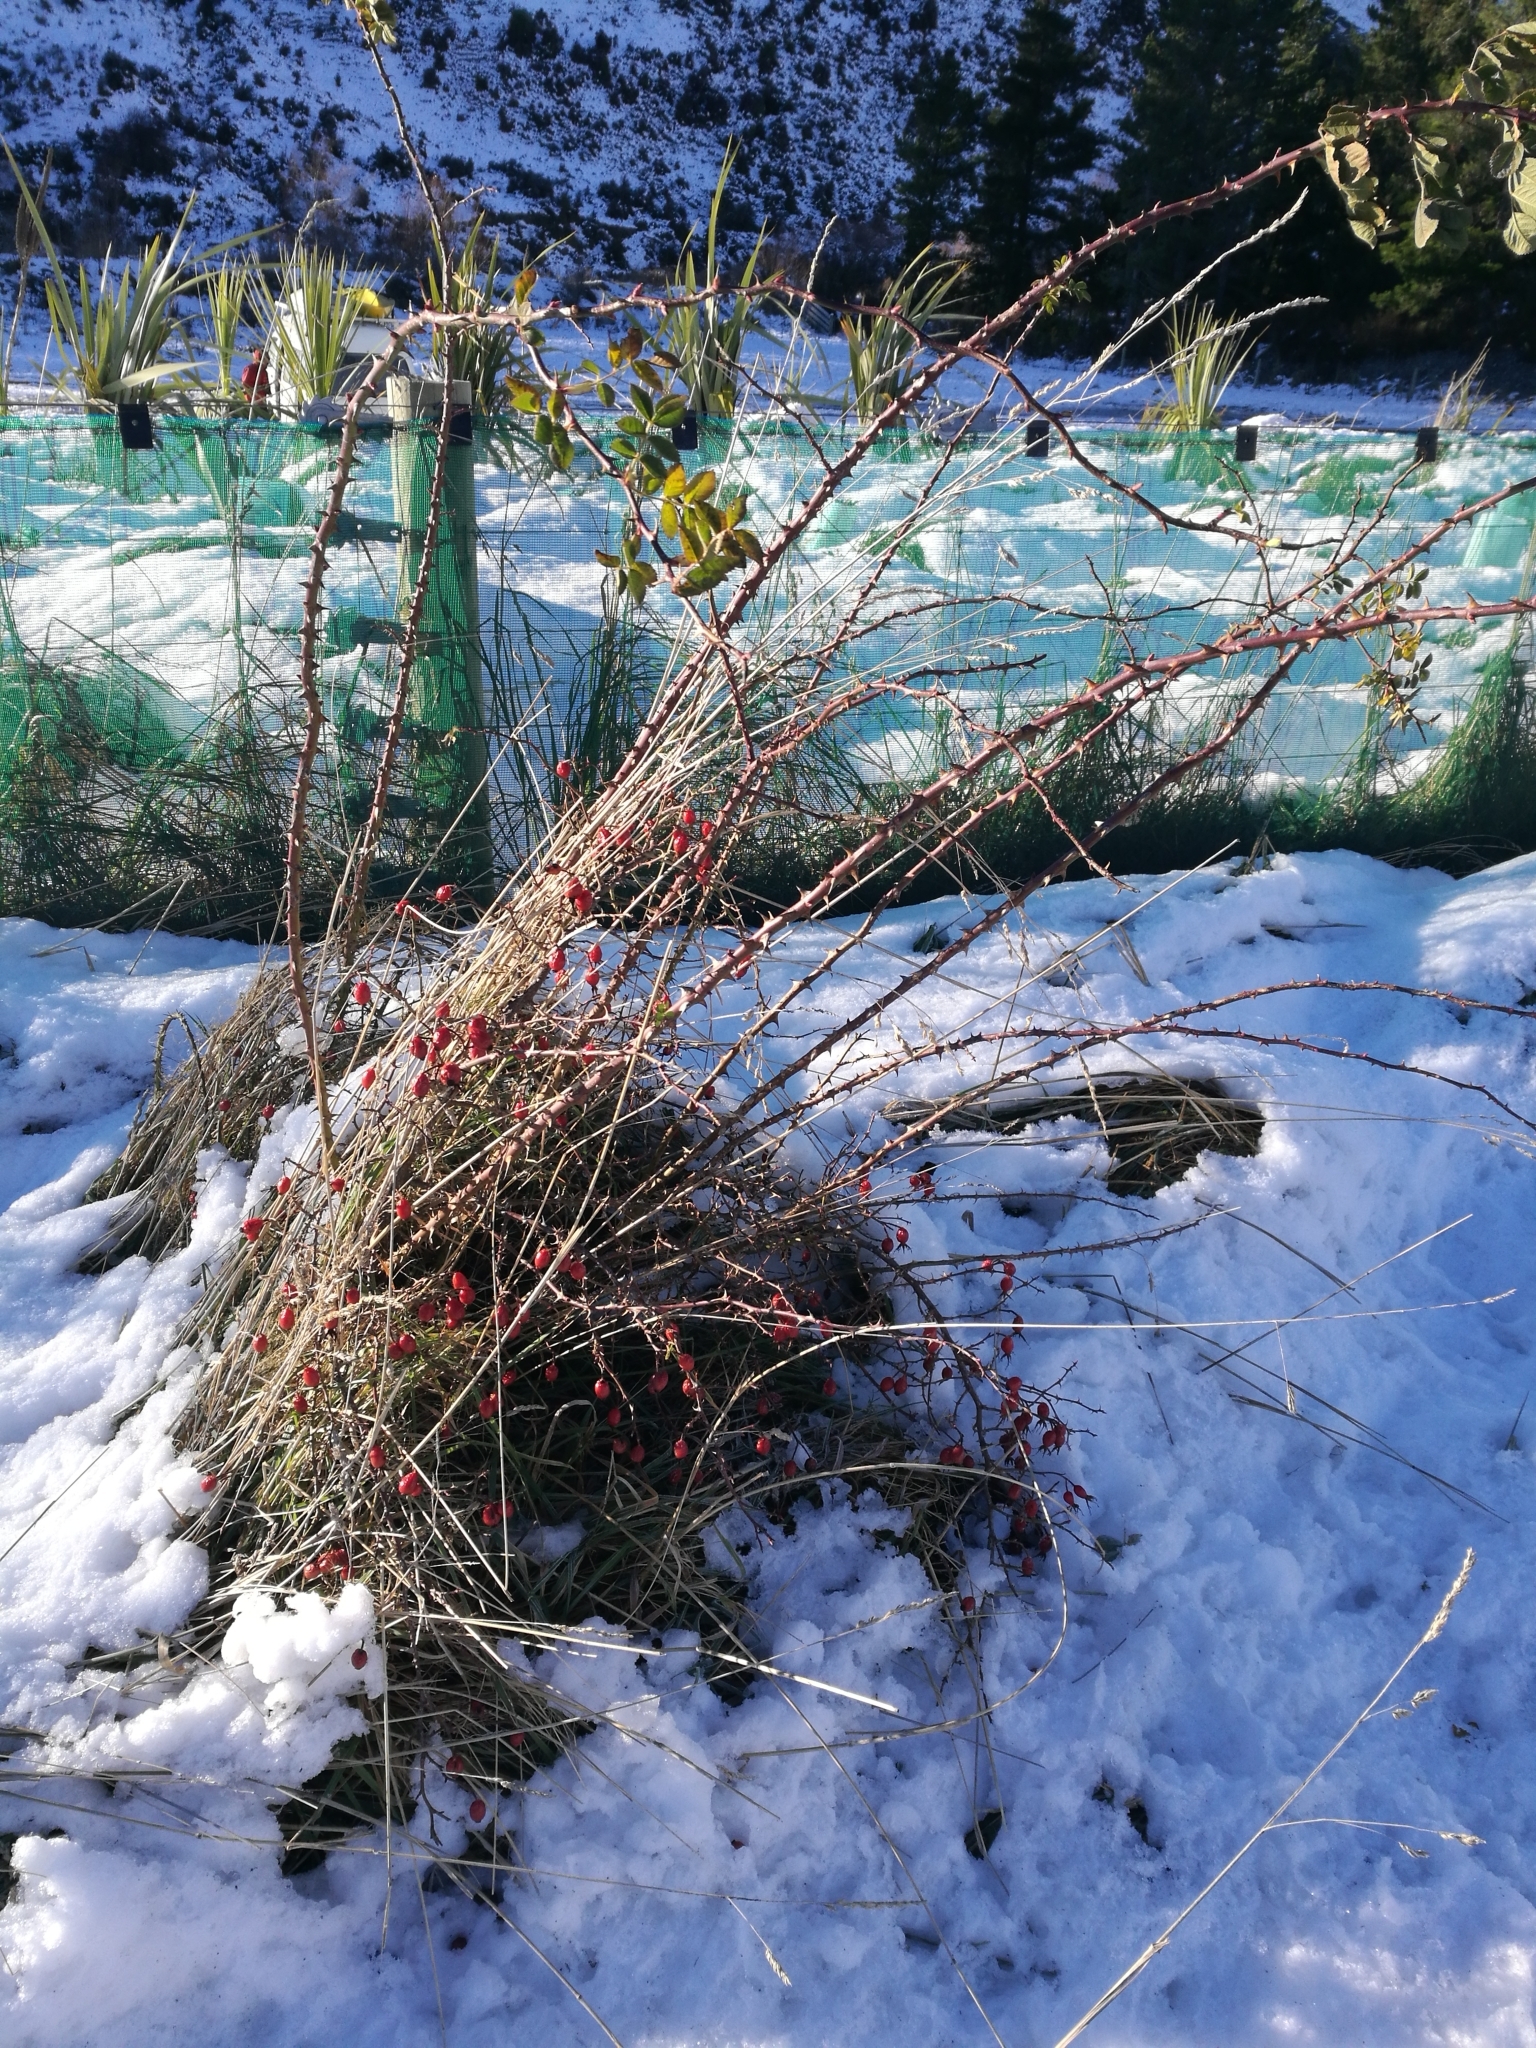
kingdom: Plantae
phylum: Tracheophyta
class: Magnoliopsida
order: Rosales
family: Rosaceae
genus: Rosa
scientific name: Rosa rubiginosa
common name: Sweet-briar
